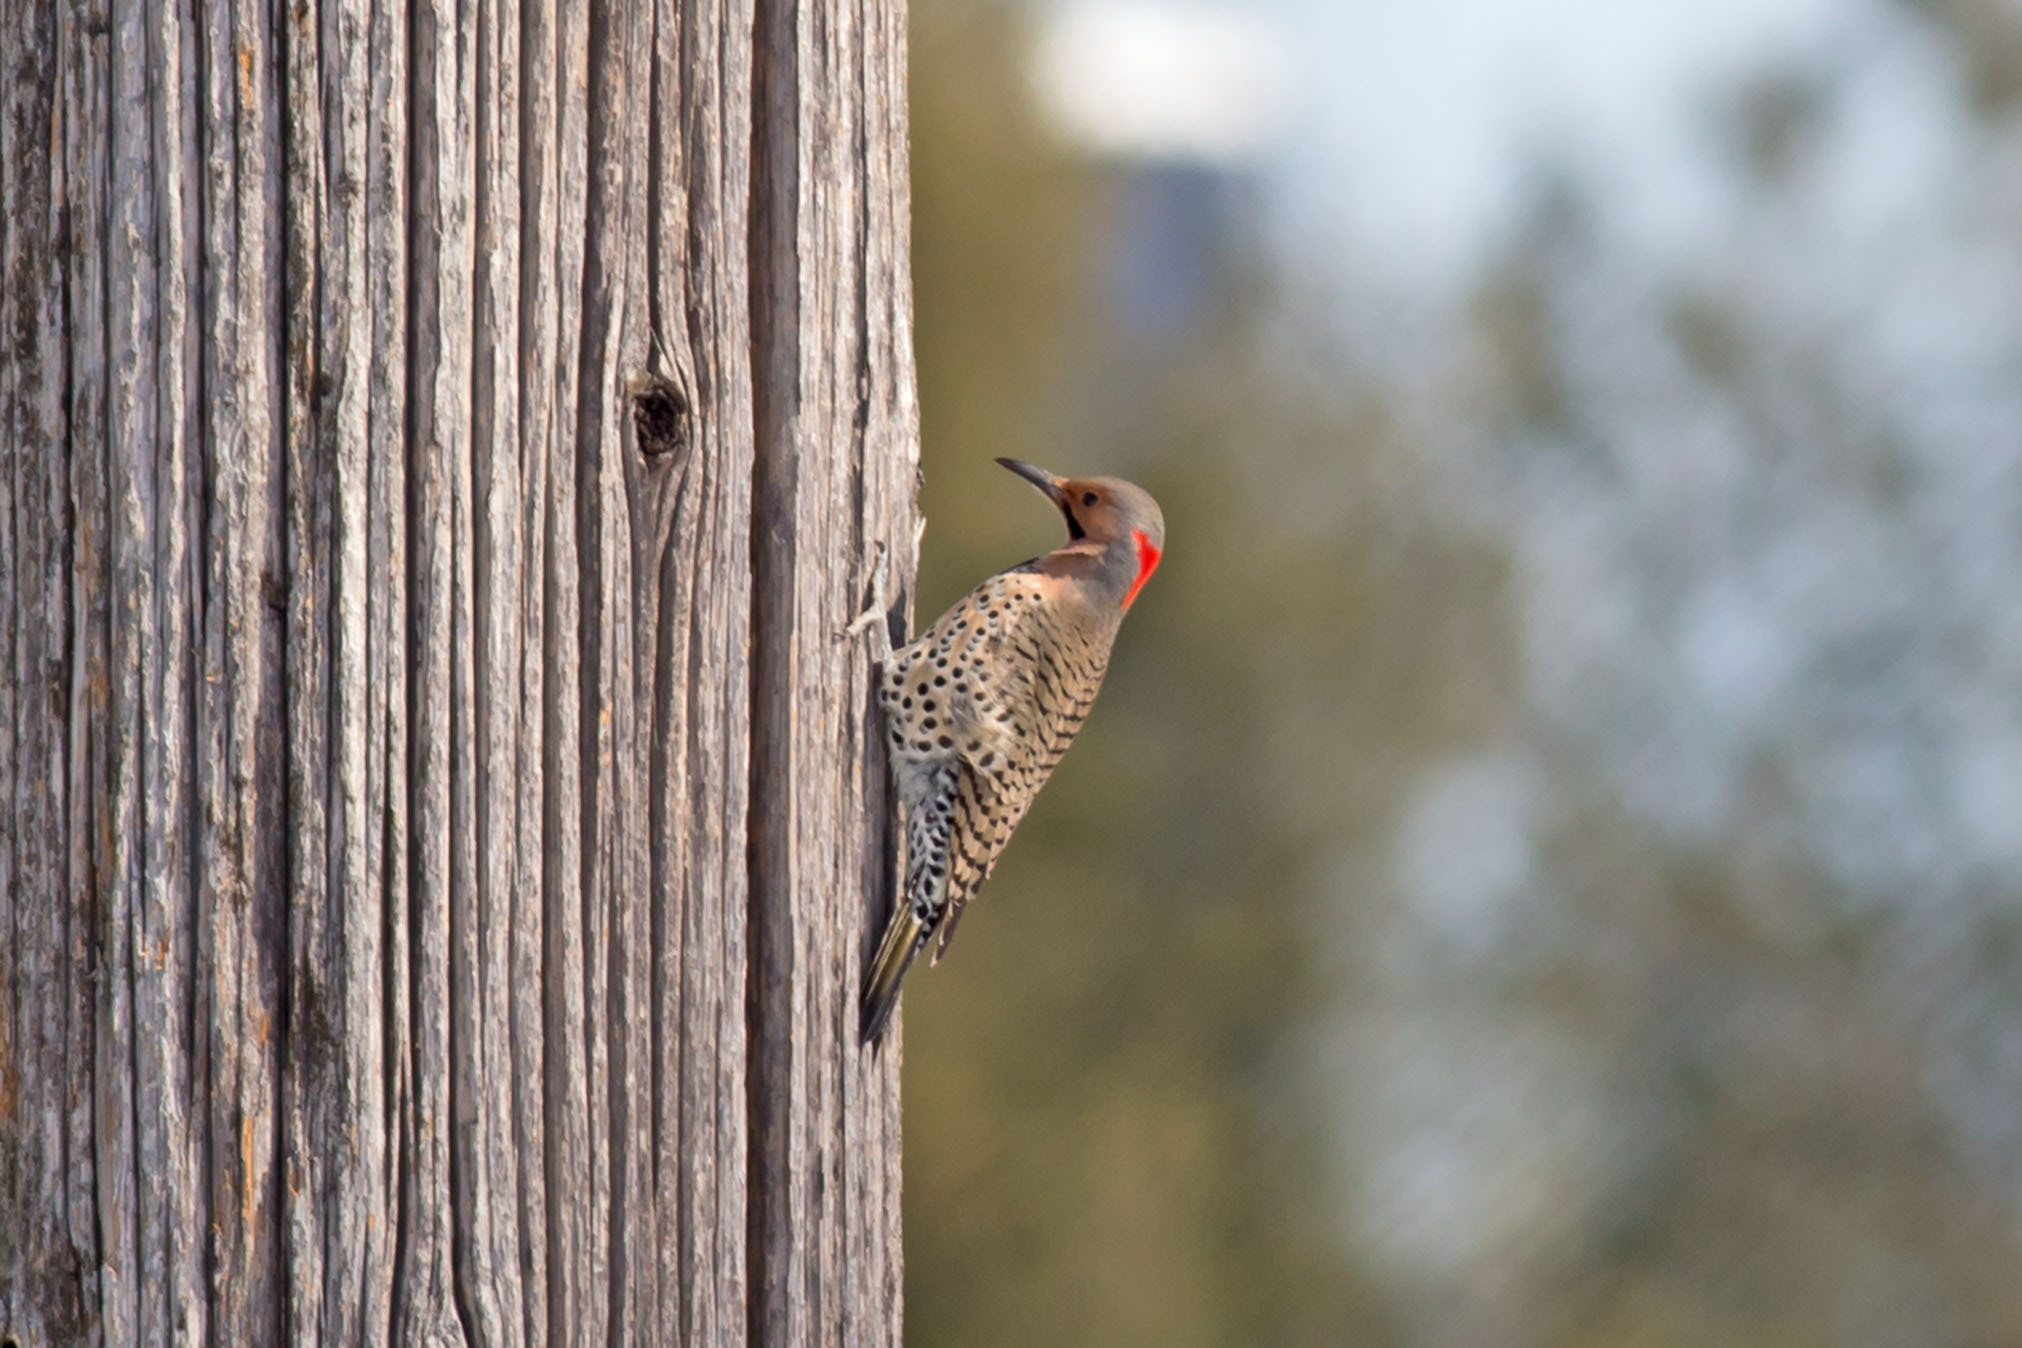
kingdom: Animalia
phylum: Chordata
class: Aves
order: Piciformes
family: Picidae
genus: Colaptes
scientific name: Colaptes auratus
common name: Northern flicker
